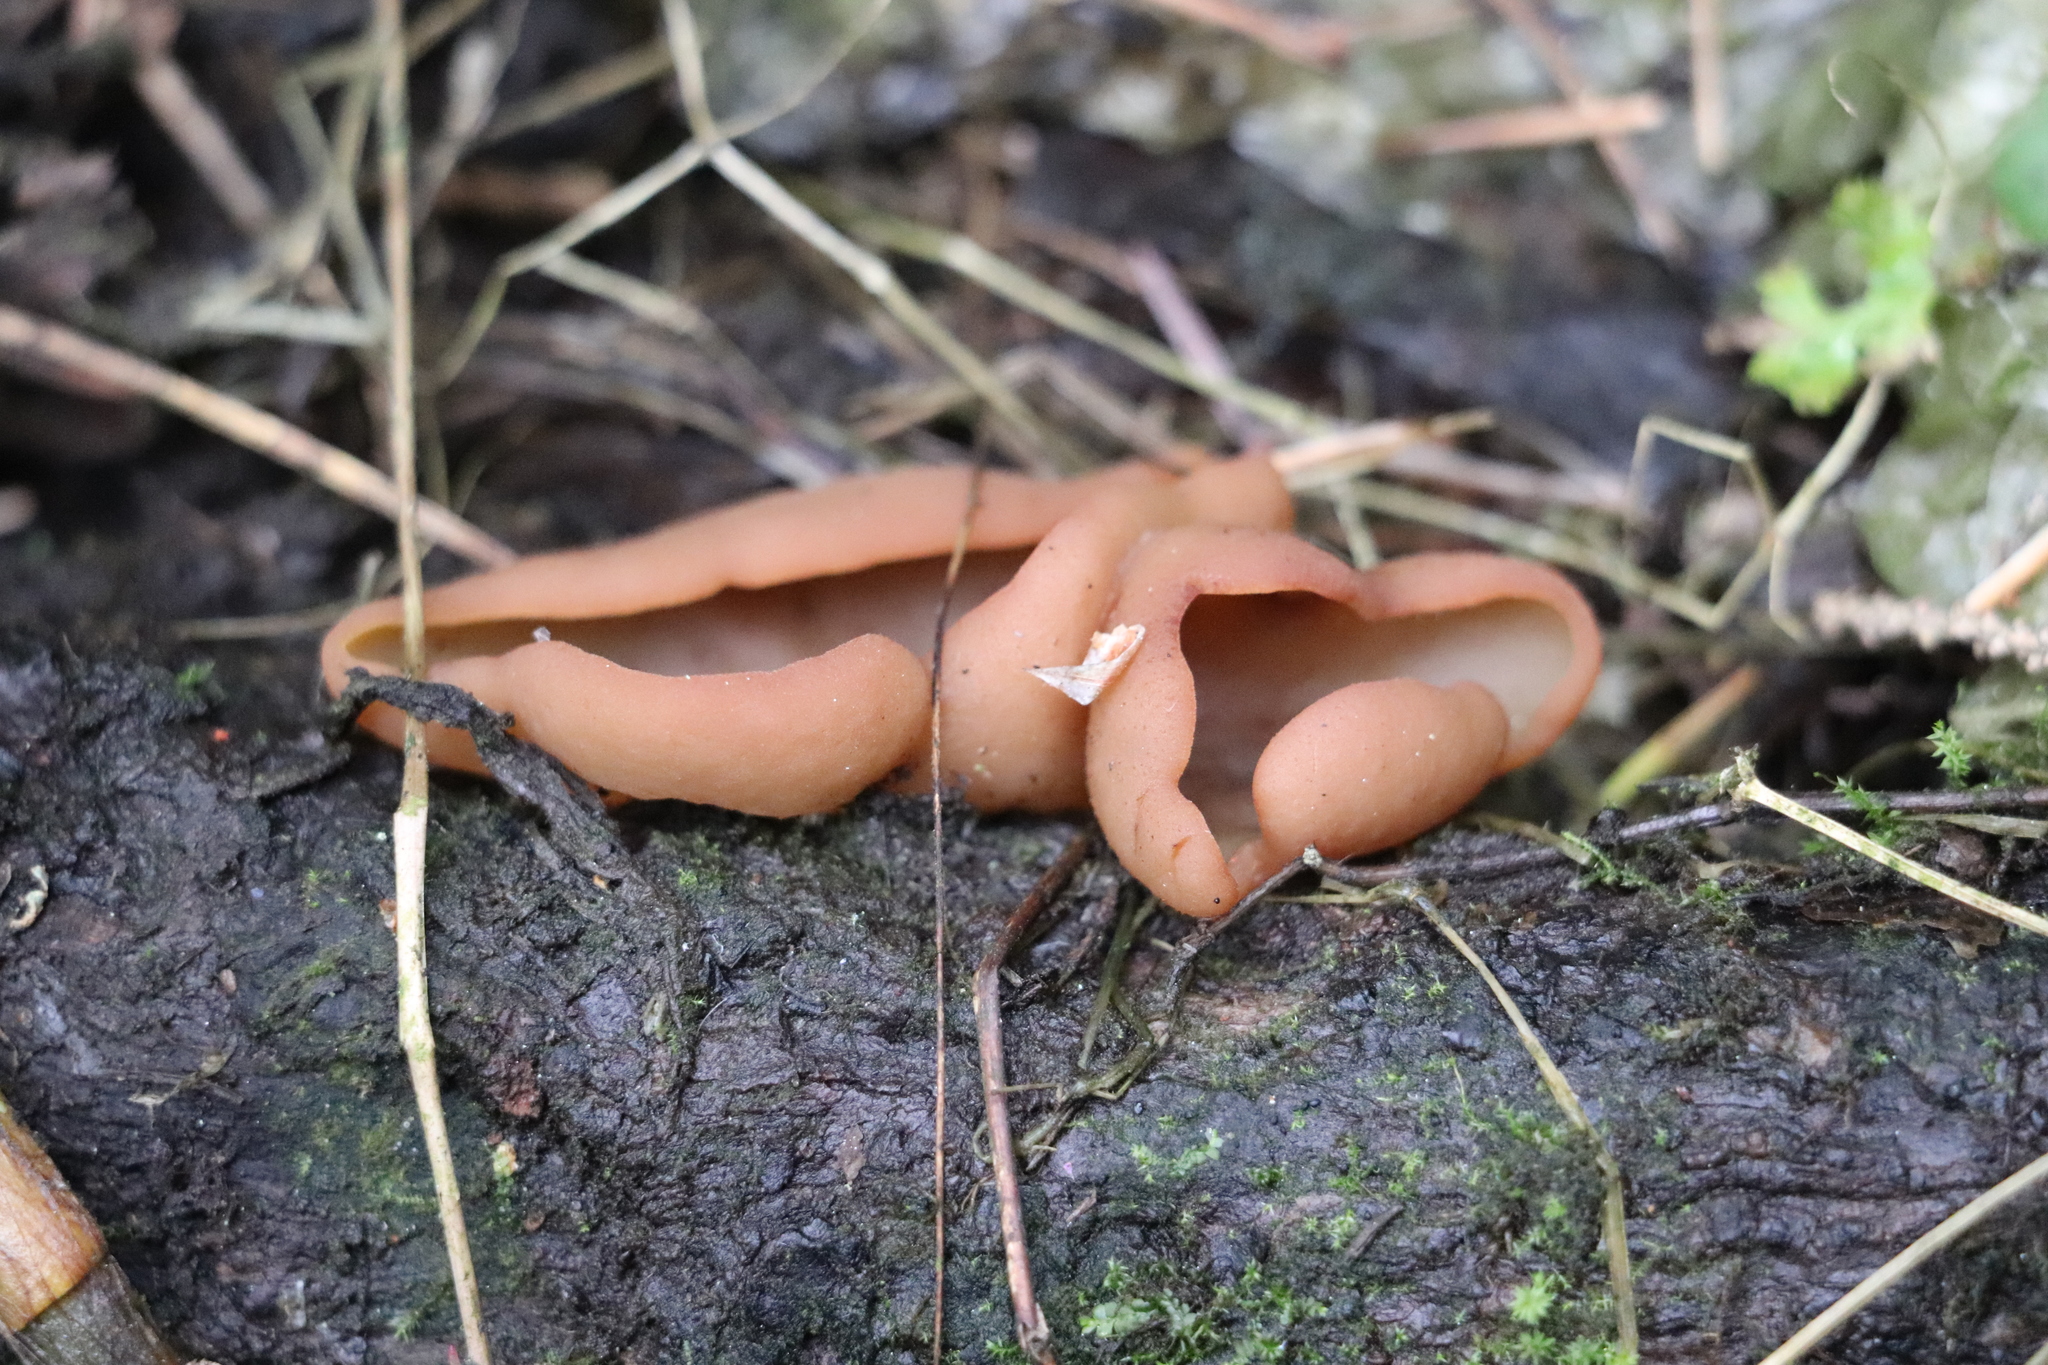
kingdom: Fungi
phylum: Ascomycota
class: Pezizomycetes
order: Pezizales
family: Pezizaceae
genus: Legaliana
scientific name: Legaliana limnaea
